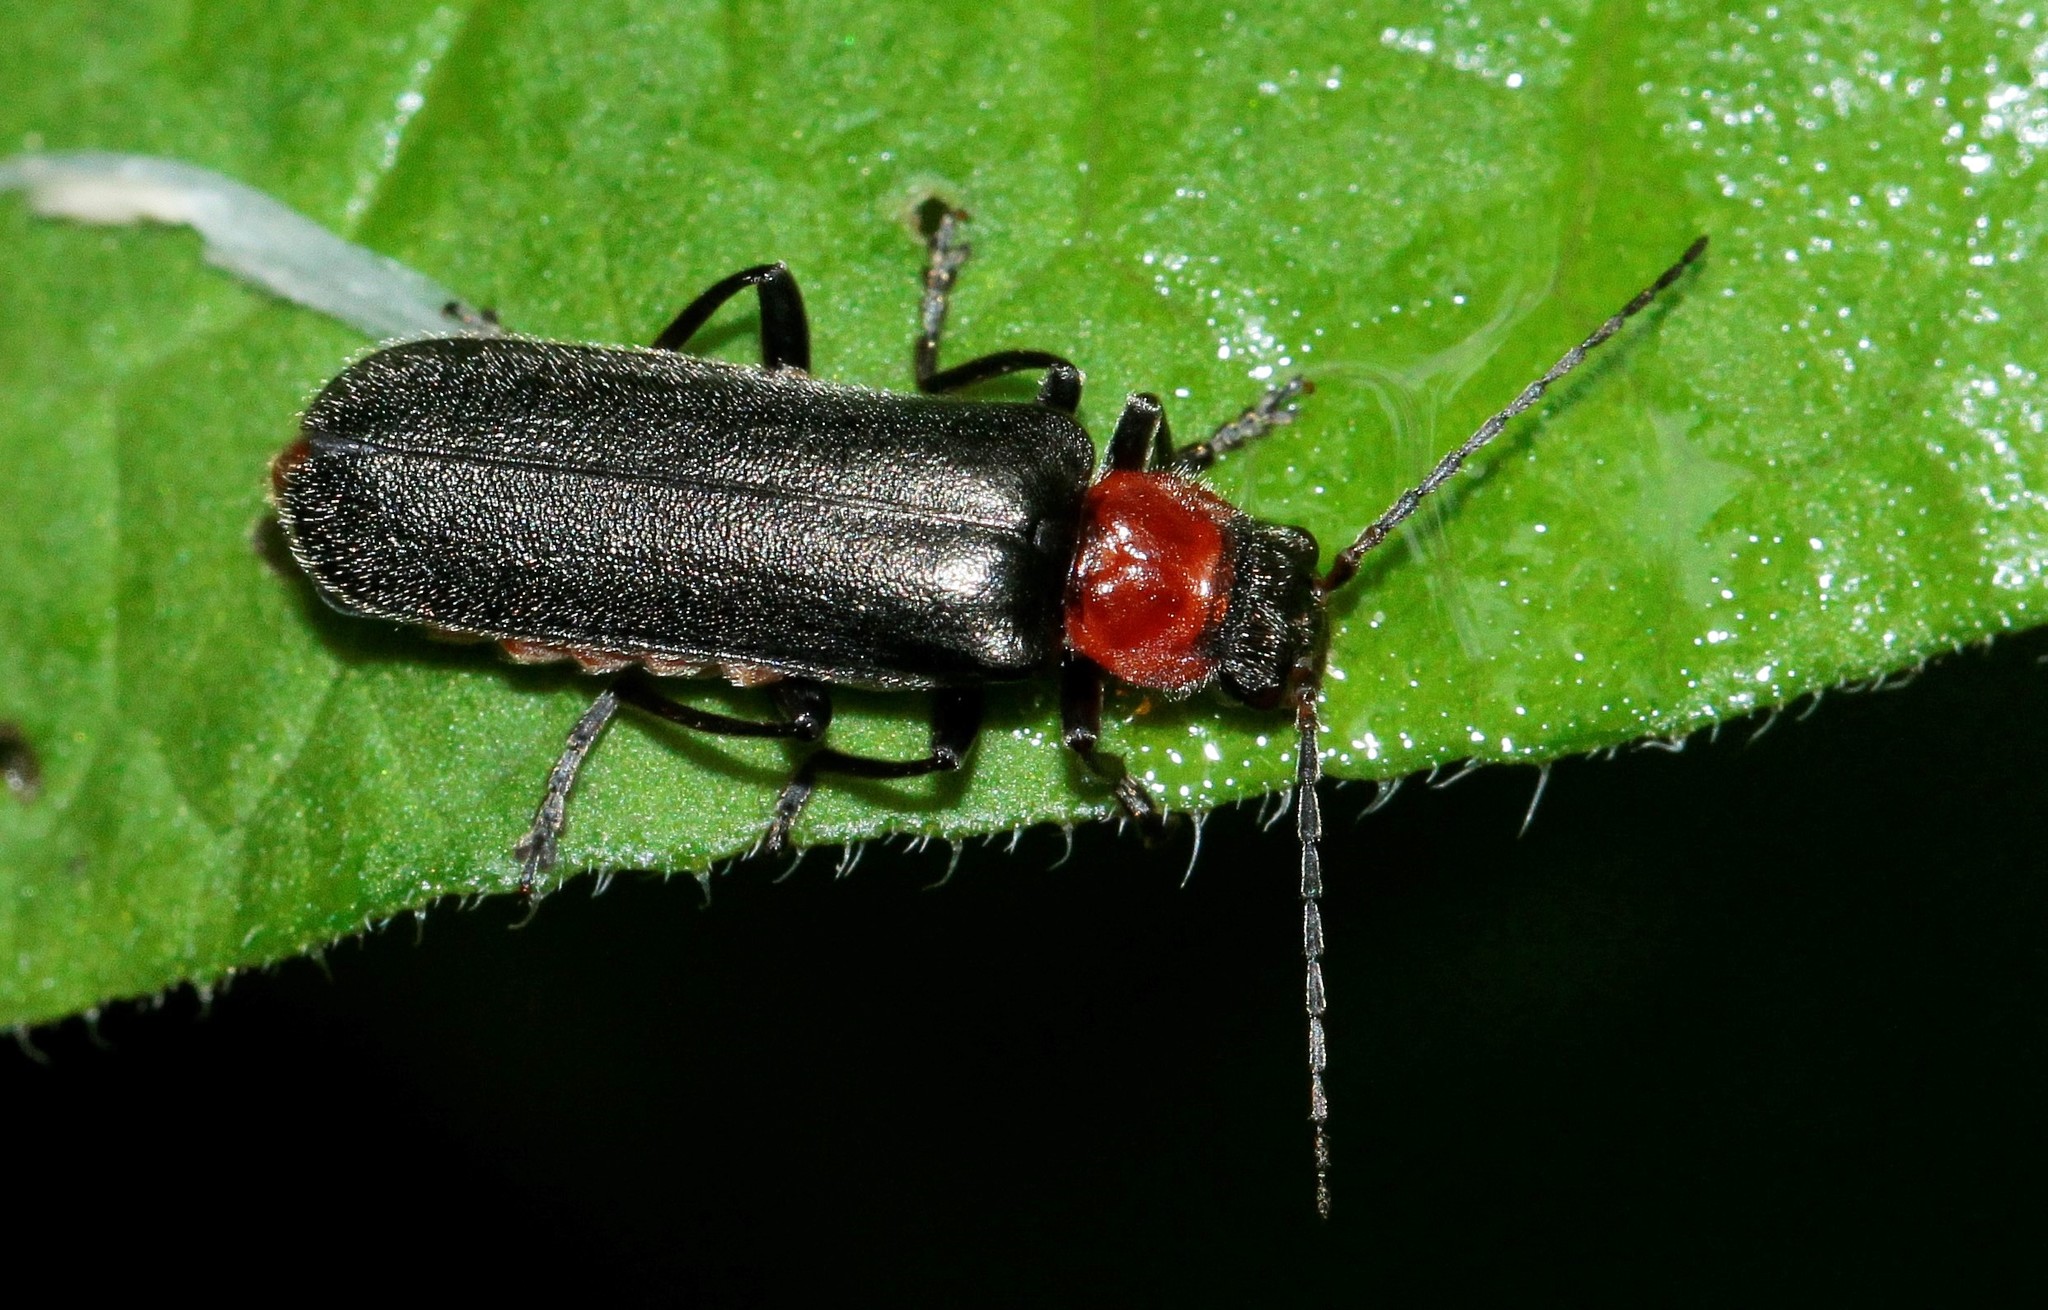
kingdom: Animalia
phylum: Arthropoda
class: Insecta
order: Coleoptera
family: Cantharidae
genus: Cordicantharis
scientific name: Cordicantharis cordicollis
